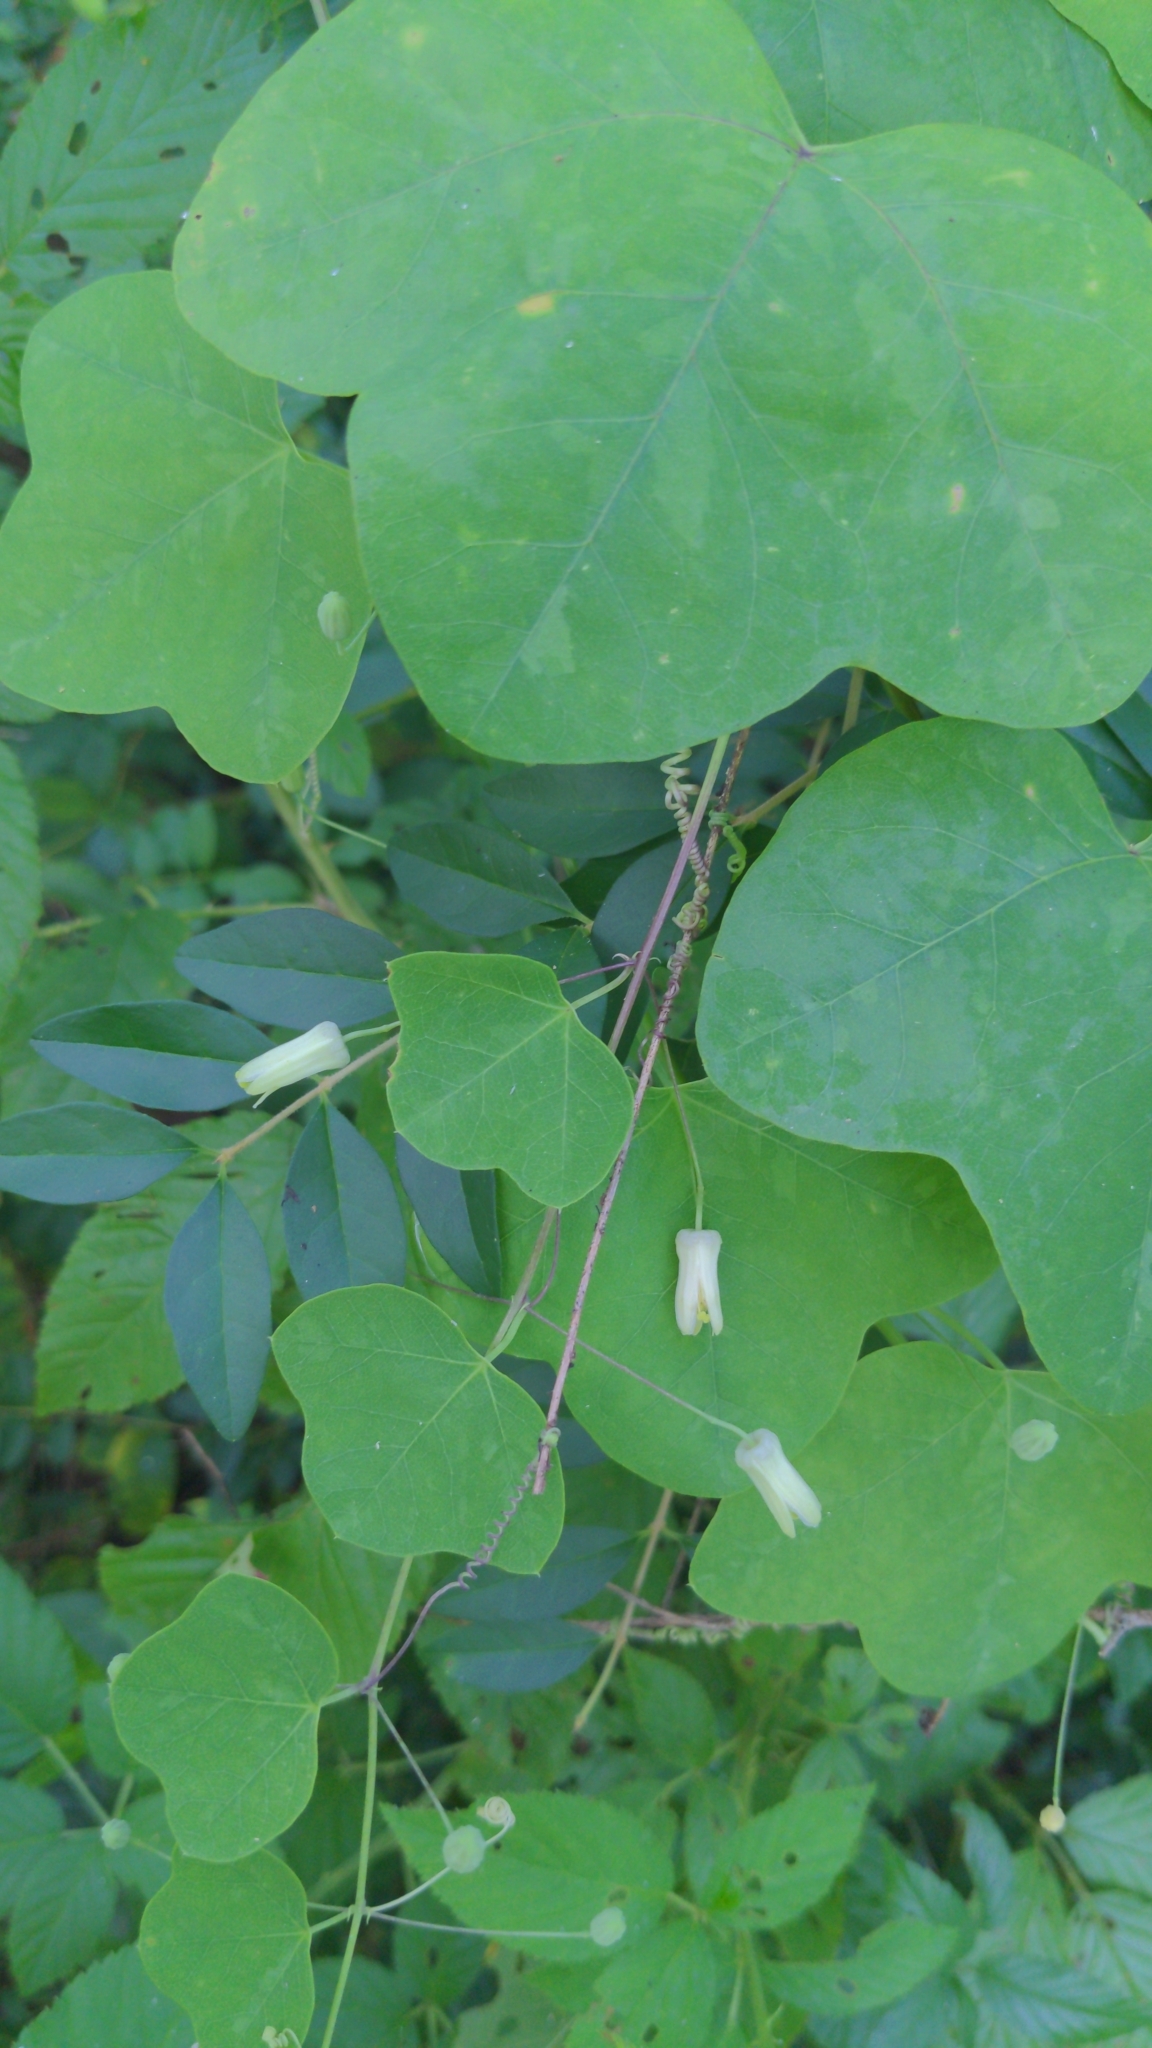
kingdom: Plantae
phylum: Tracheophyta
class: Magnoliopsida
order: Malpighiales
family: Passifloraceae
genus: Passiflora
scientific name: Passiflora lutea
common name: Yellow passionflower
